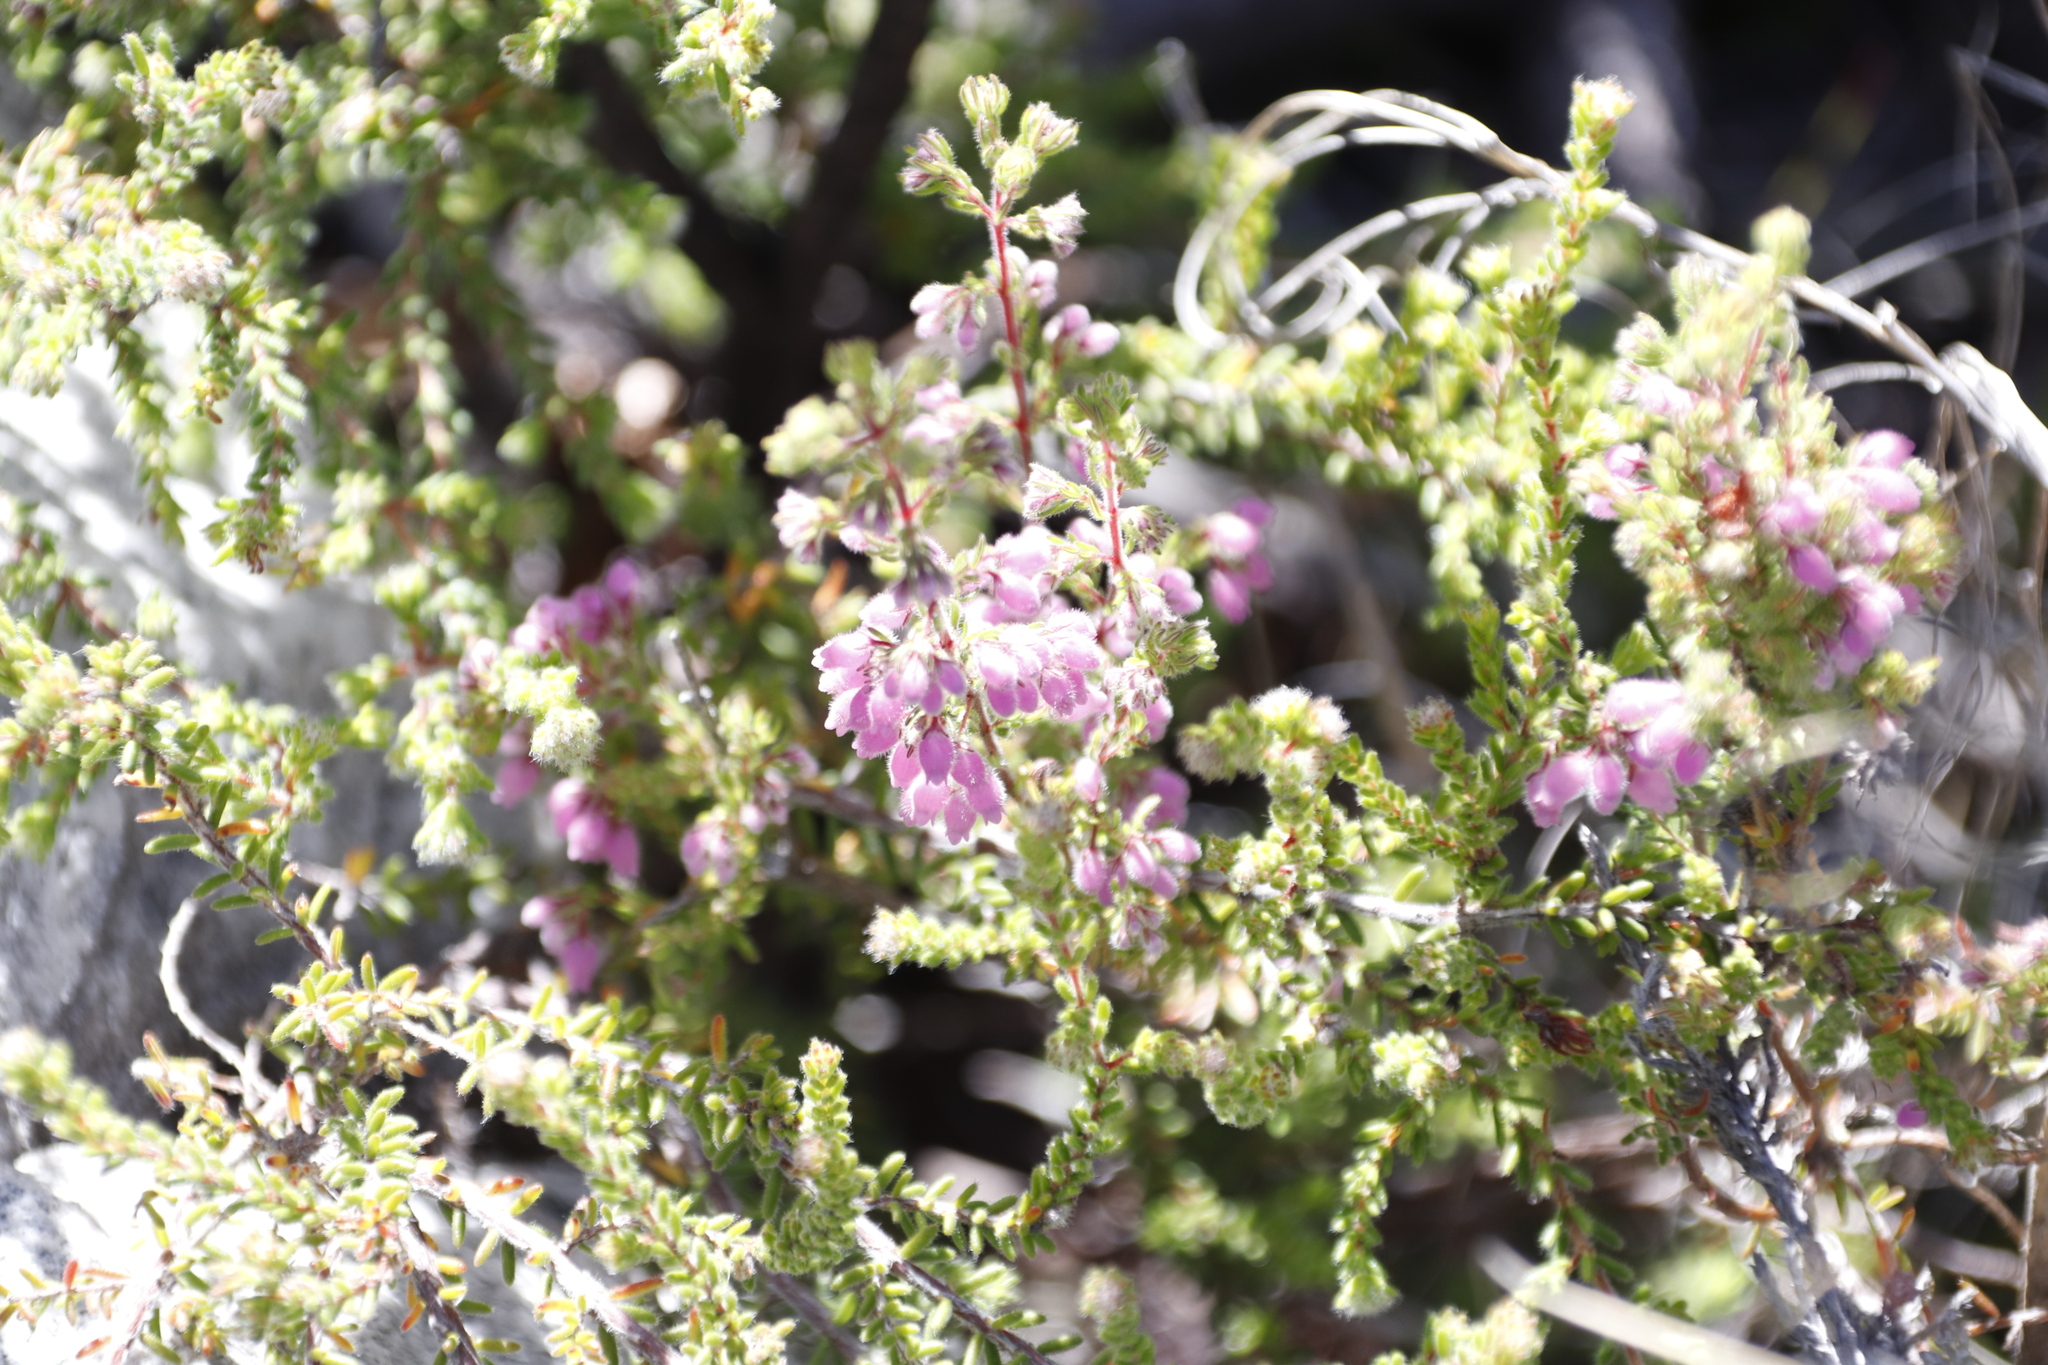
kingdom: Plantae
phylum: Tracheophyta
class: Magnoliopsida
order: Ericales
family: Ericaceae
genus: Erica
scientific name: Erica hirtiflora
